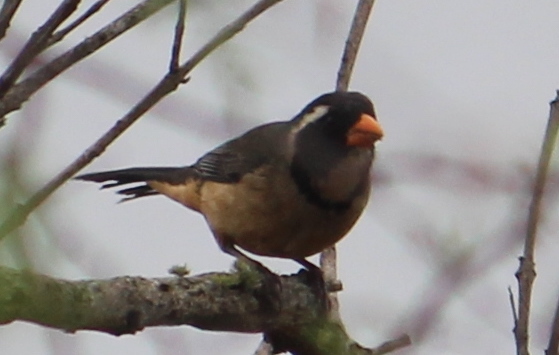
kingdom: Animalia
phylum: Chordata
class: Aves
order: Passeriformes
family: Thraupidae
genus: Saltator
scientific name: Saltator aurantiirostris
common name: Golden-billed saltator
